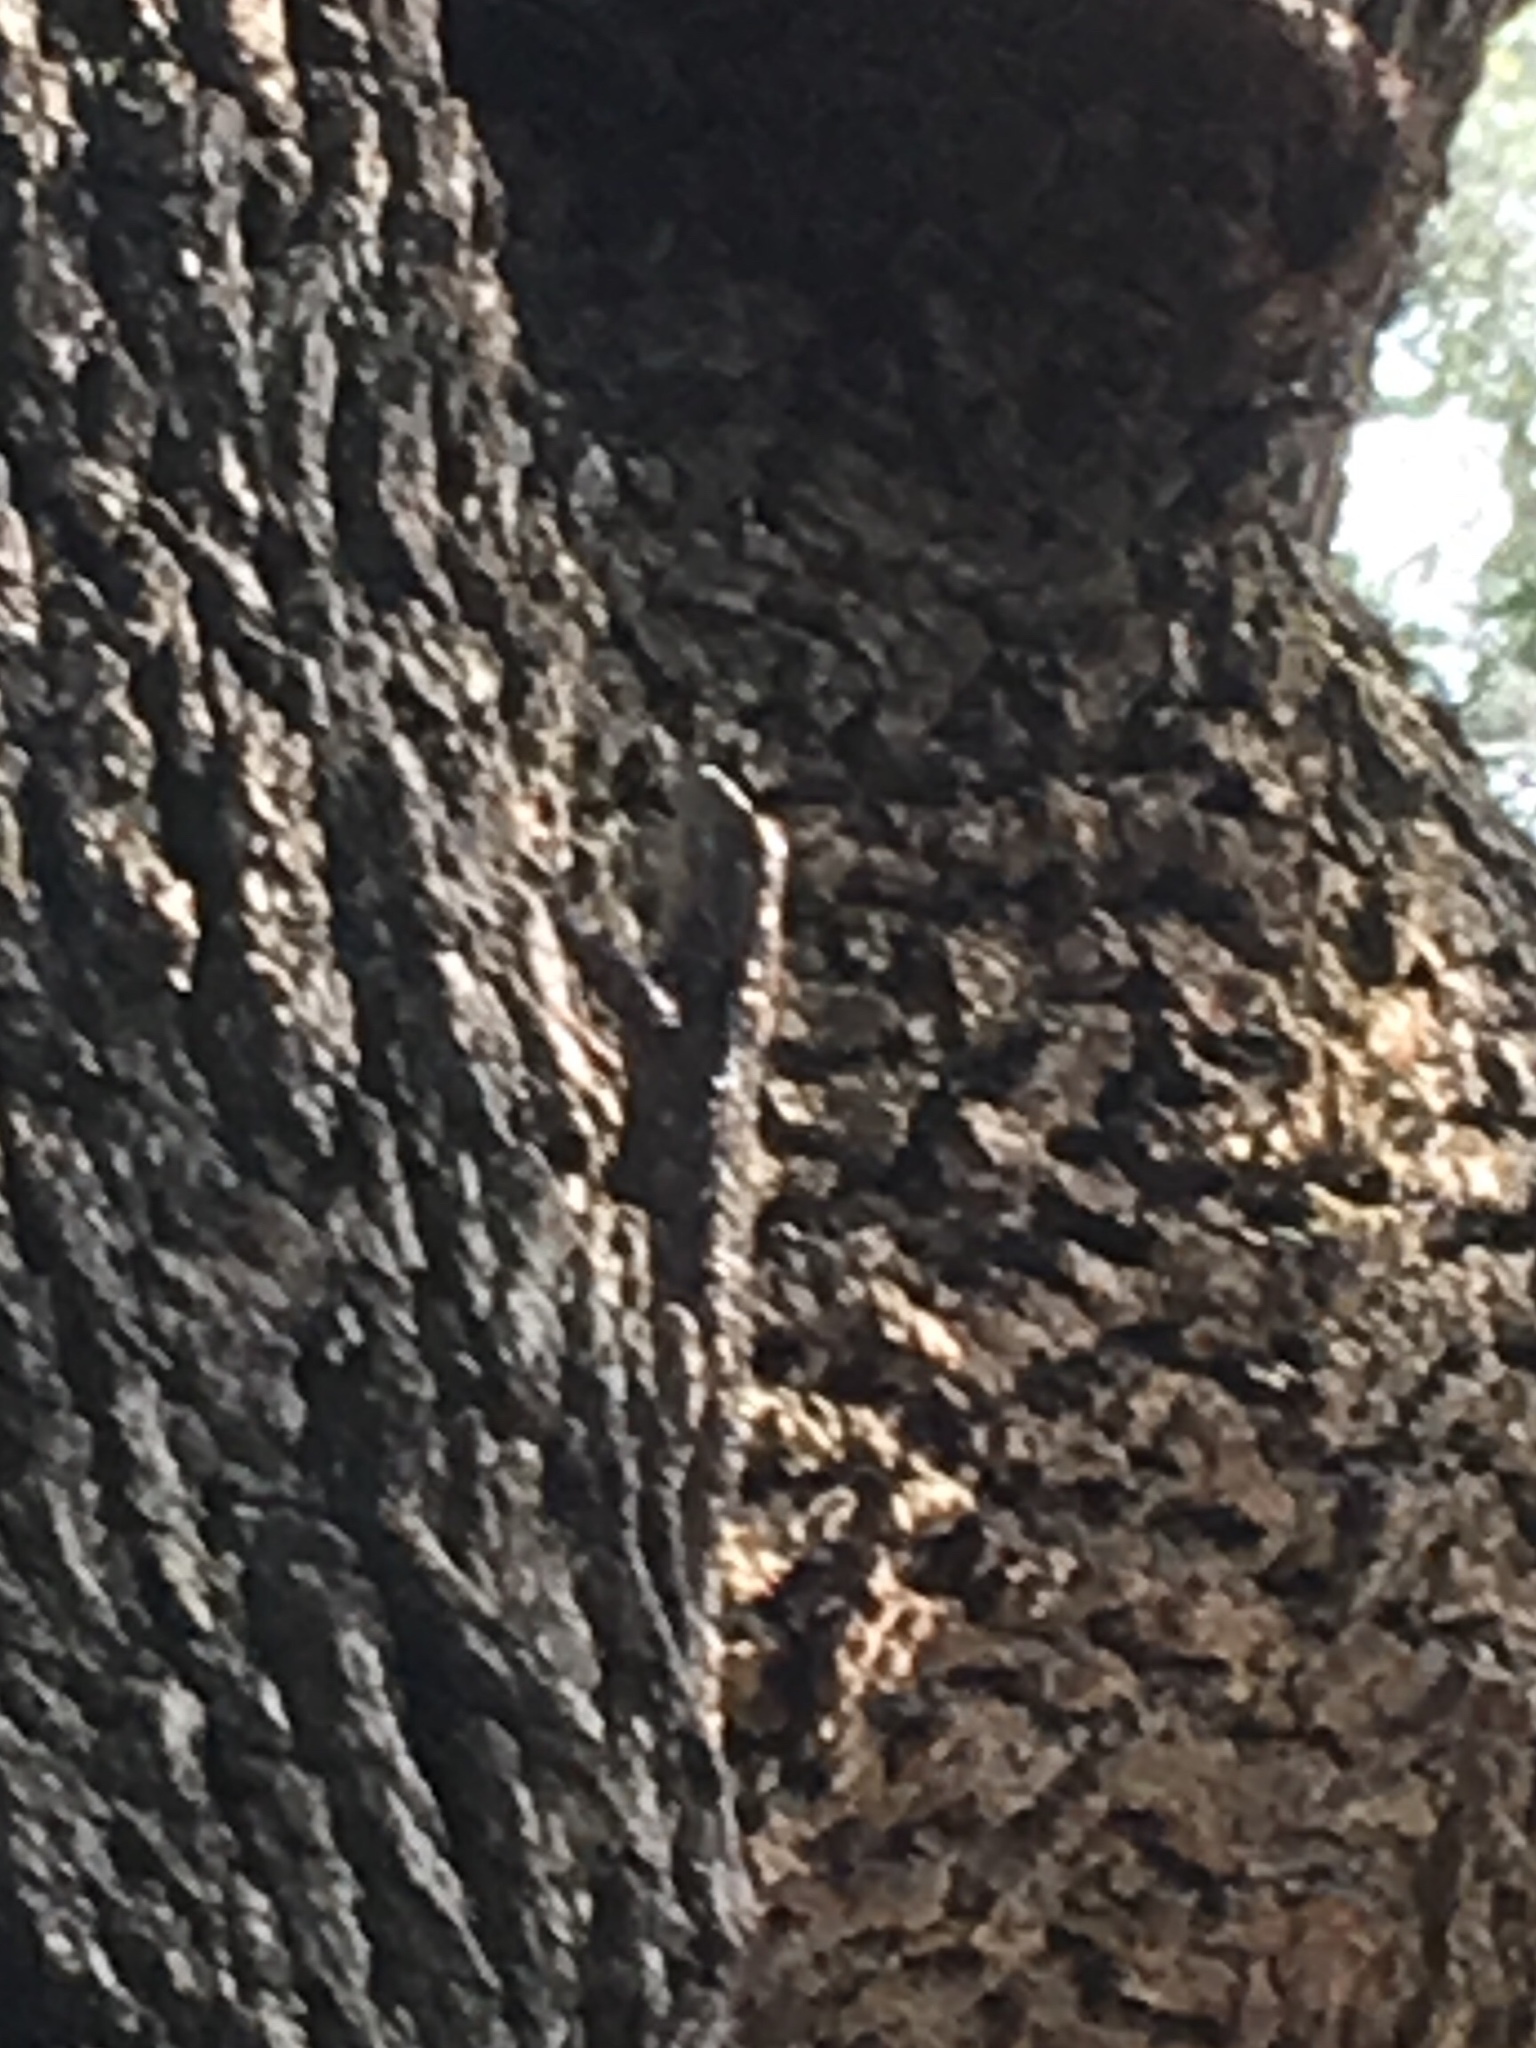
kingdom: Animalia
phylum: Chordata
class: Squamata
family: Phrynosomatidae
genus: Sceloporus
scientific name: Sceloporus olivaceus
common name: Texas spiny lizard
